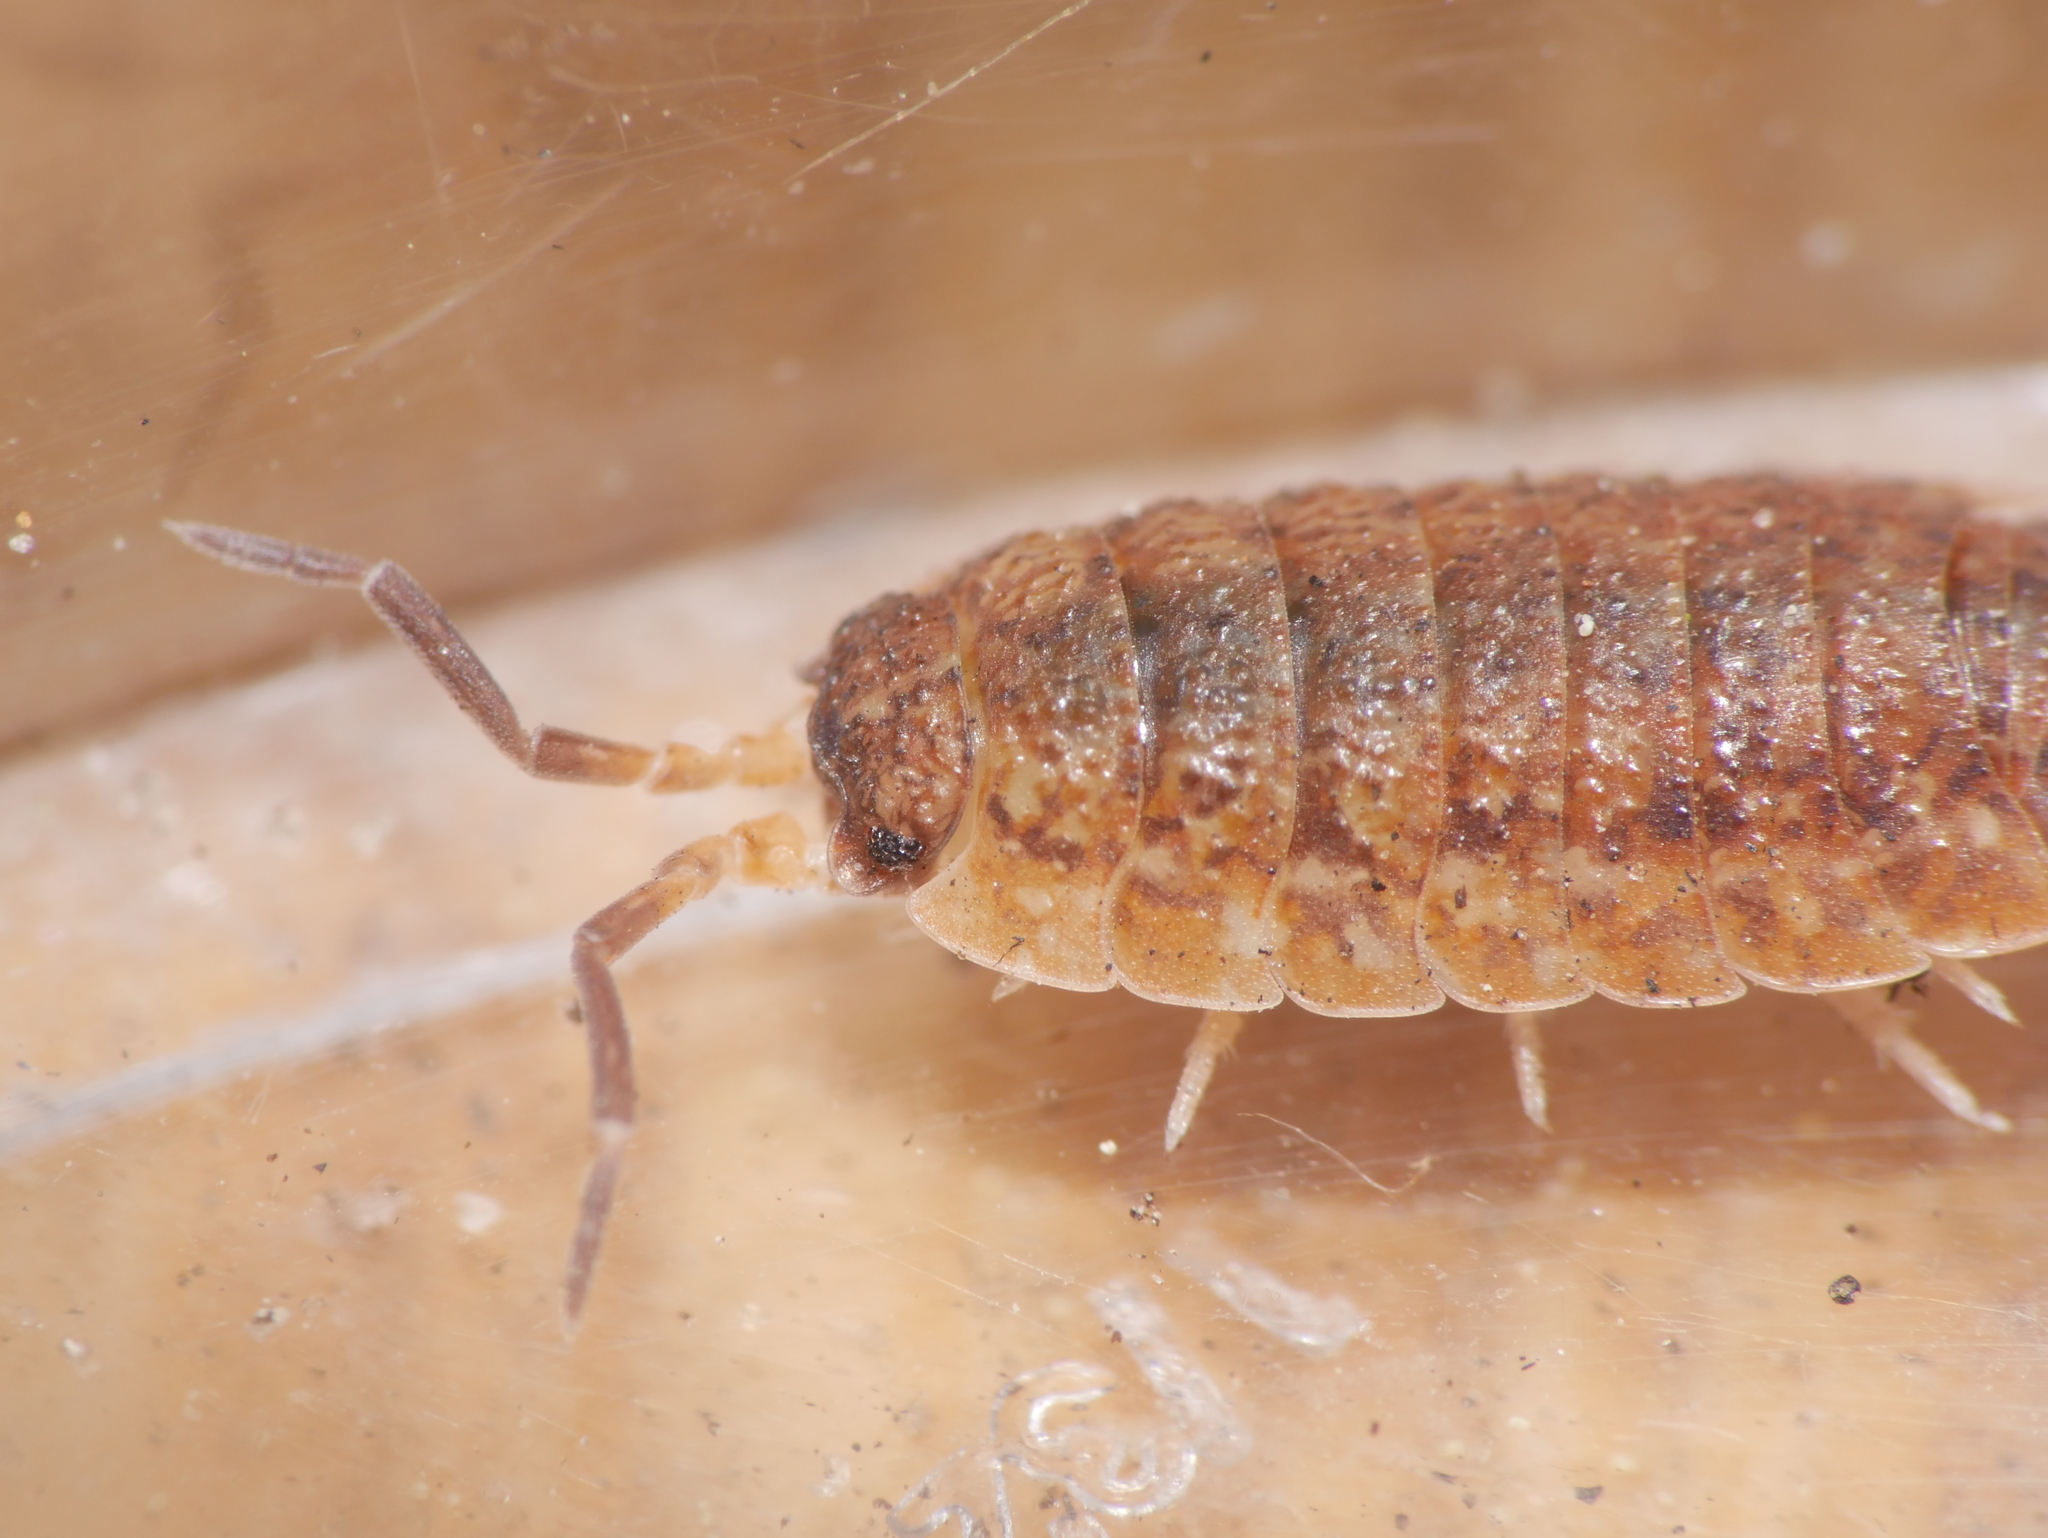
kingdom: Animalia
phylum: Arthropoda
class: Malacostraca
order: Isopoda
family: Porcellionidae
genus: Porcellio
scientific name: Porcellio scaber
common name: Common rough woodlouse
